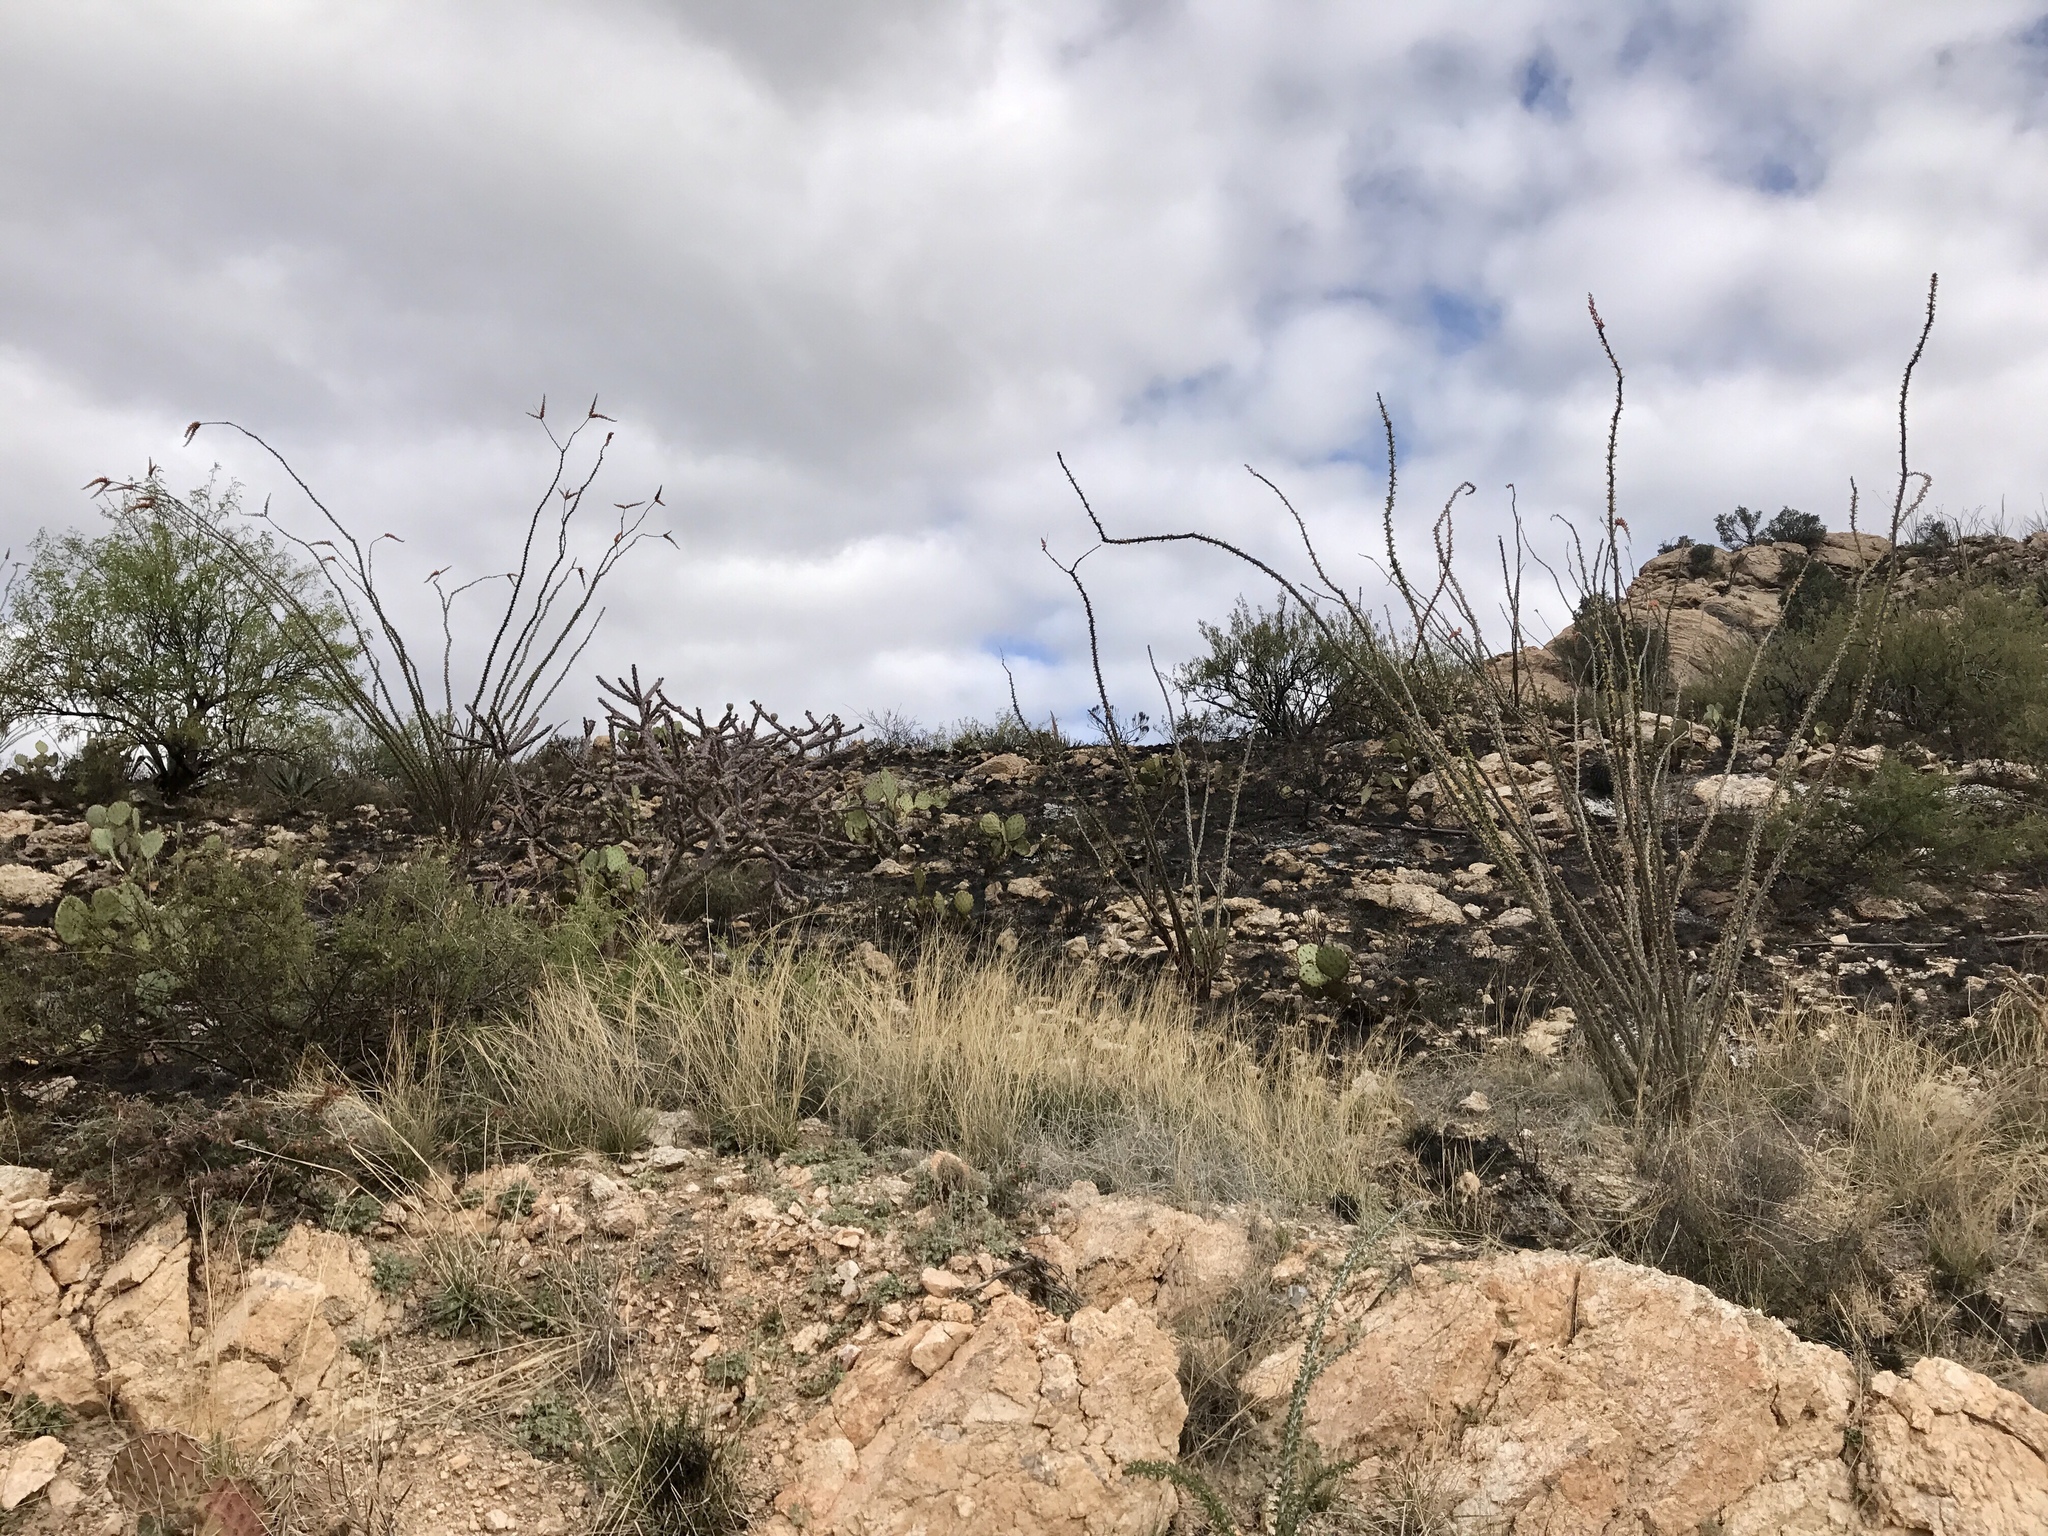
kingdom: Plantae
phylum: Tracheophyta
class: Magnoliopsida
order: Ericales
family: Fouquieriaceae
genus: Fouquieria
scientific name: Fouquieria splendens
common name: Vine-cactus
